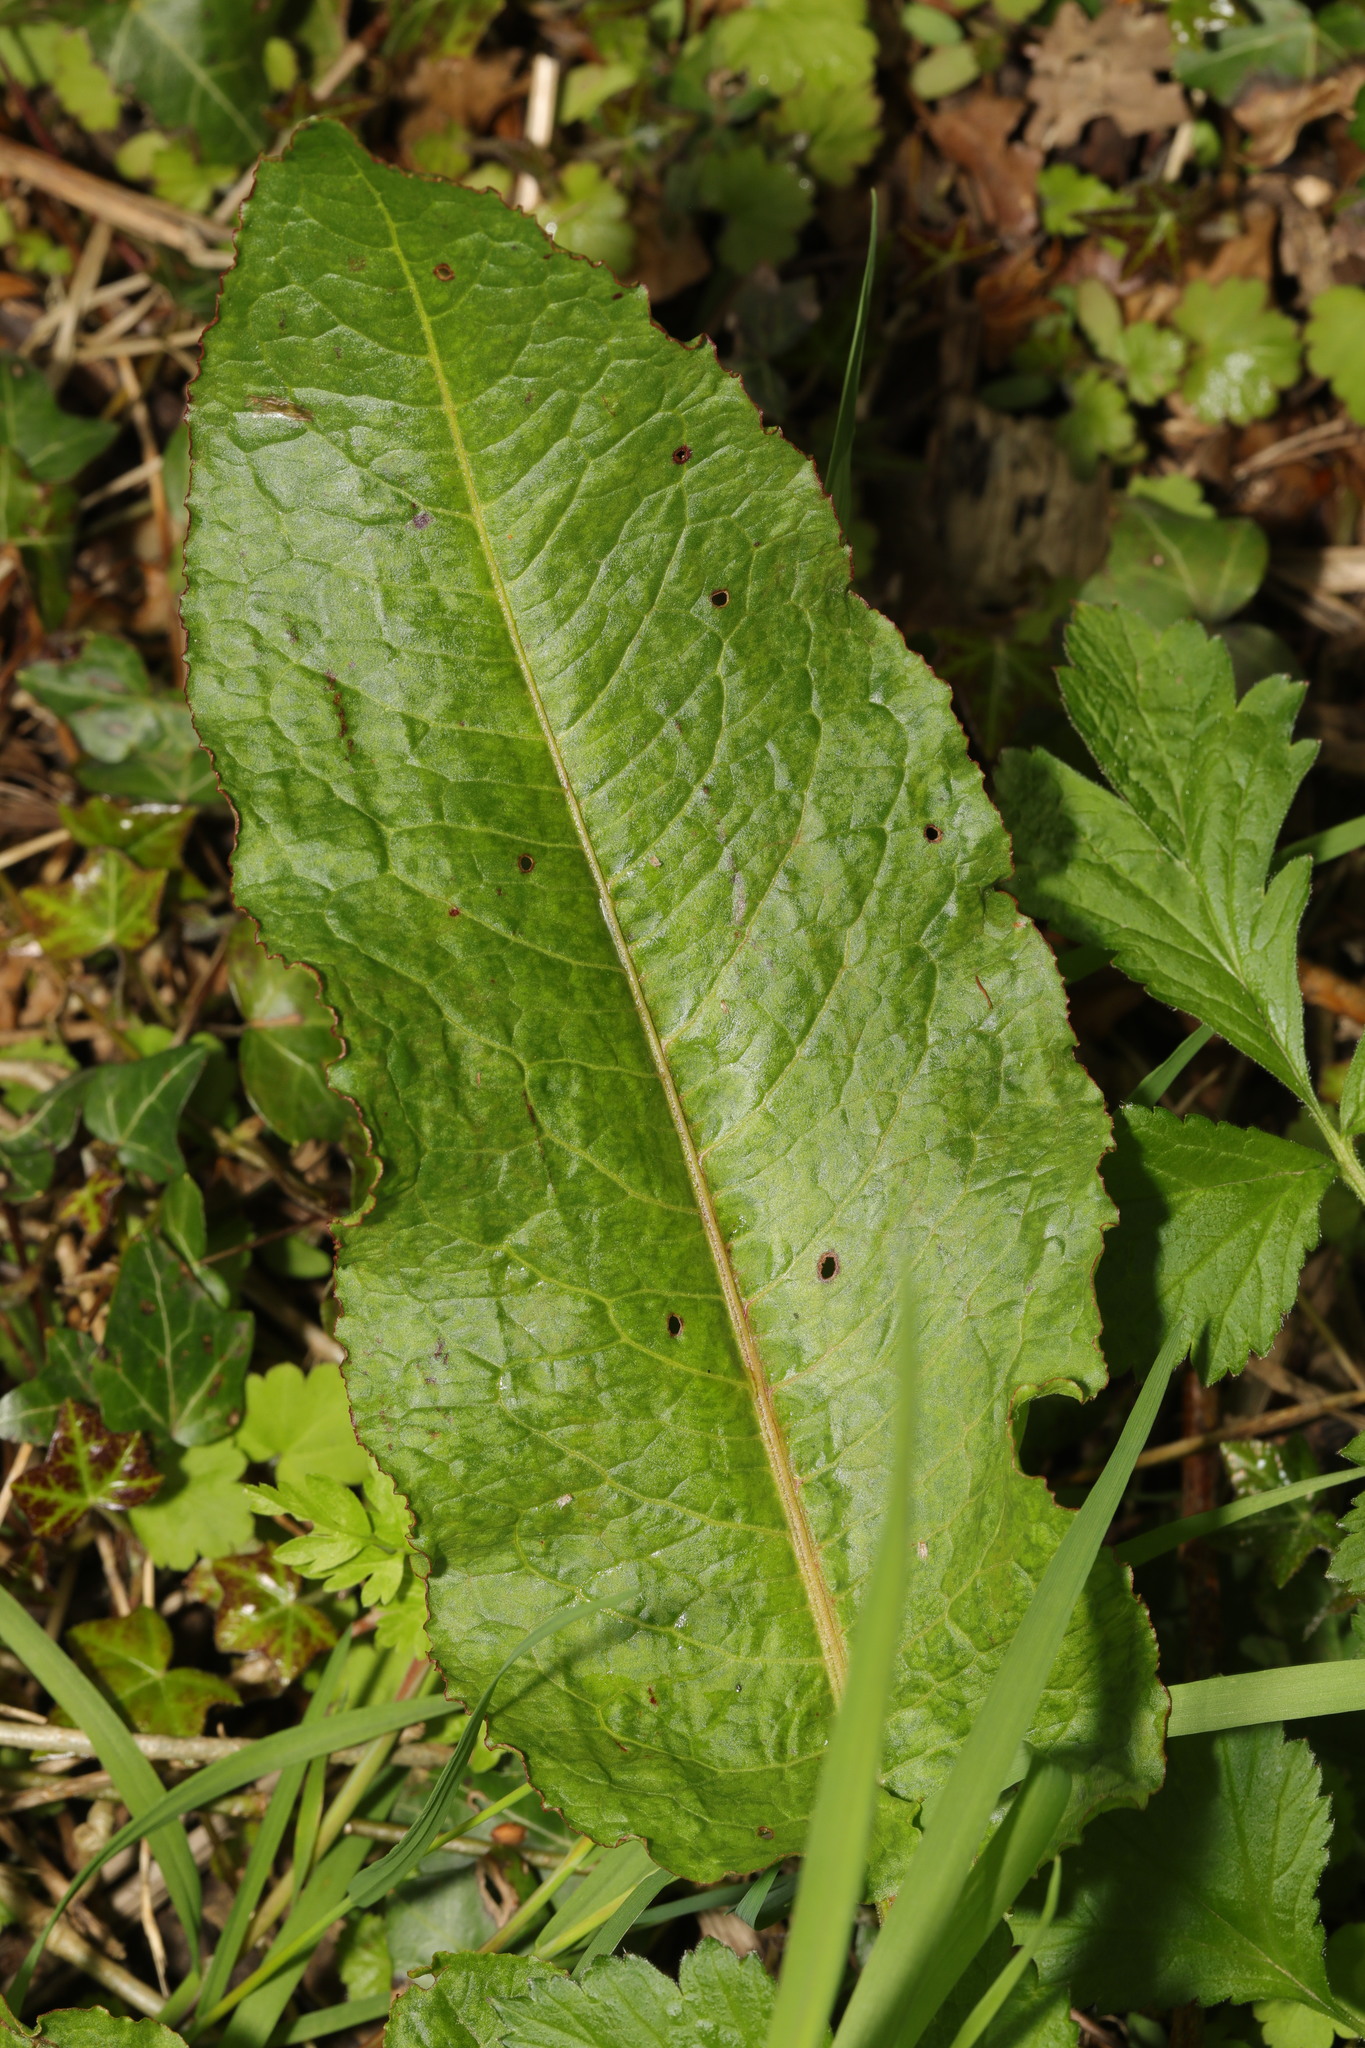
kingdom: Plantae
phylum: Tracheophyta
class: Magnoliopsida
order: Caryophyllales
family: Polygonaceae
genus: Rumex
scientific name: Rumex obtusifolius
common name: Bitter dock
